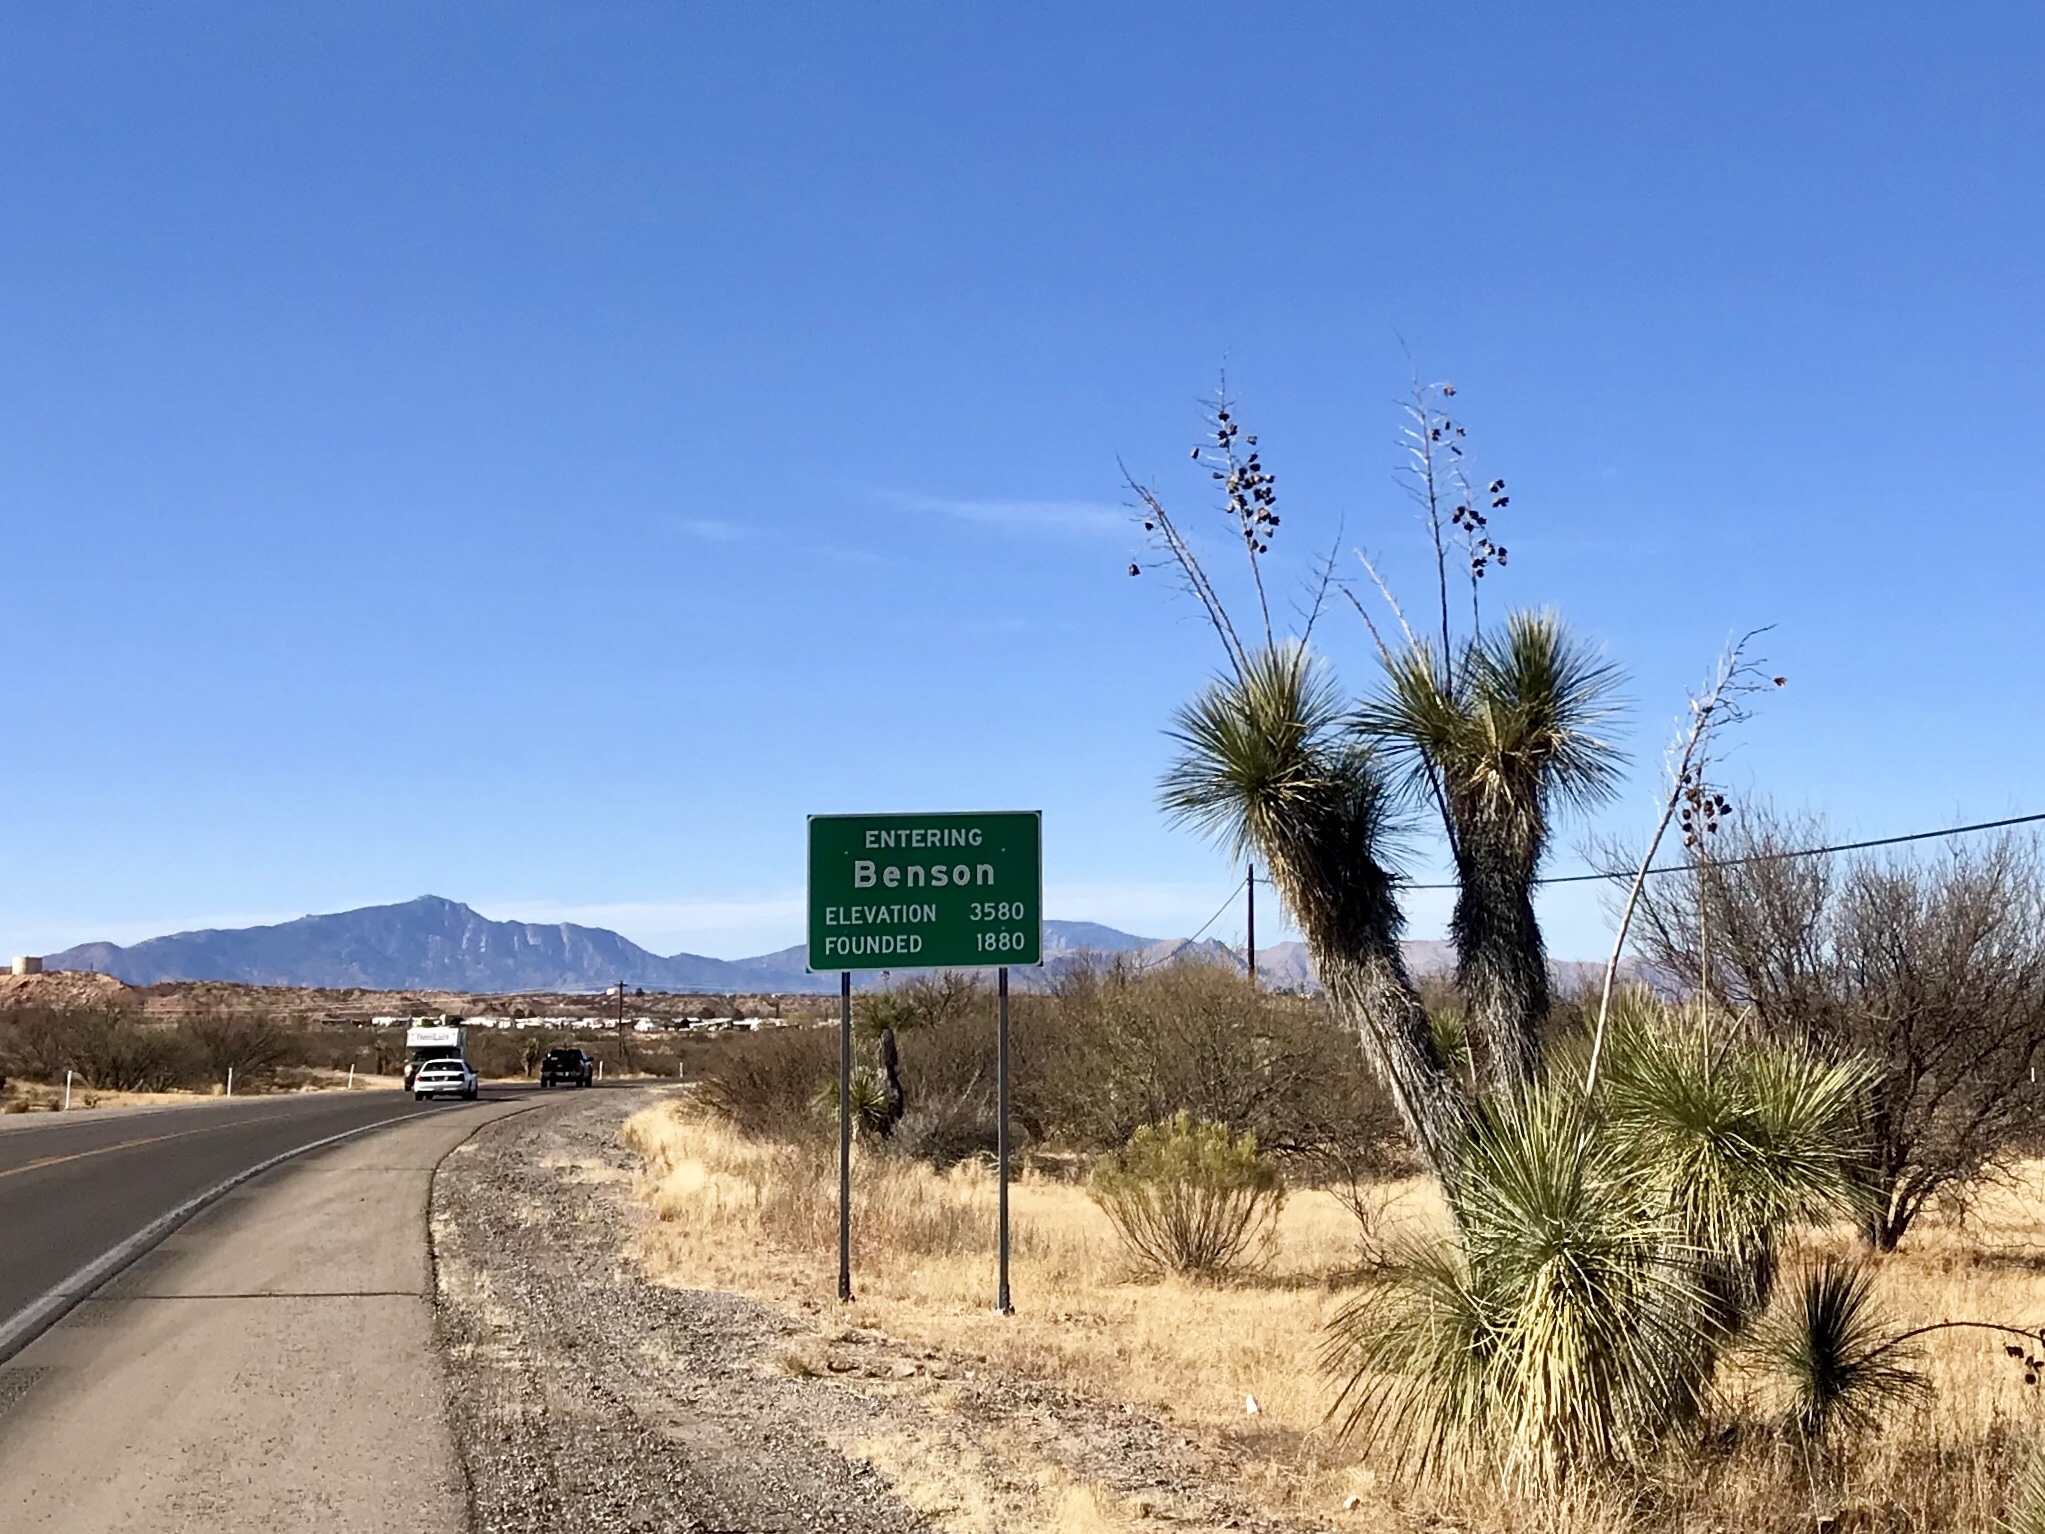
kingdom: Plantae
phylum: Tracheophyta
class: Liliopsida
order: Asparagales
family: Asparagaceae
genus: Yucca
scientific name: Yucca elata
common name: Palmella
